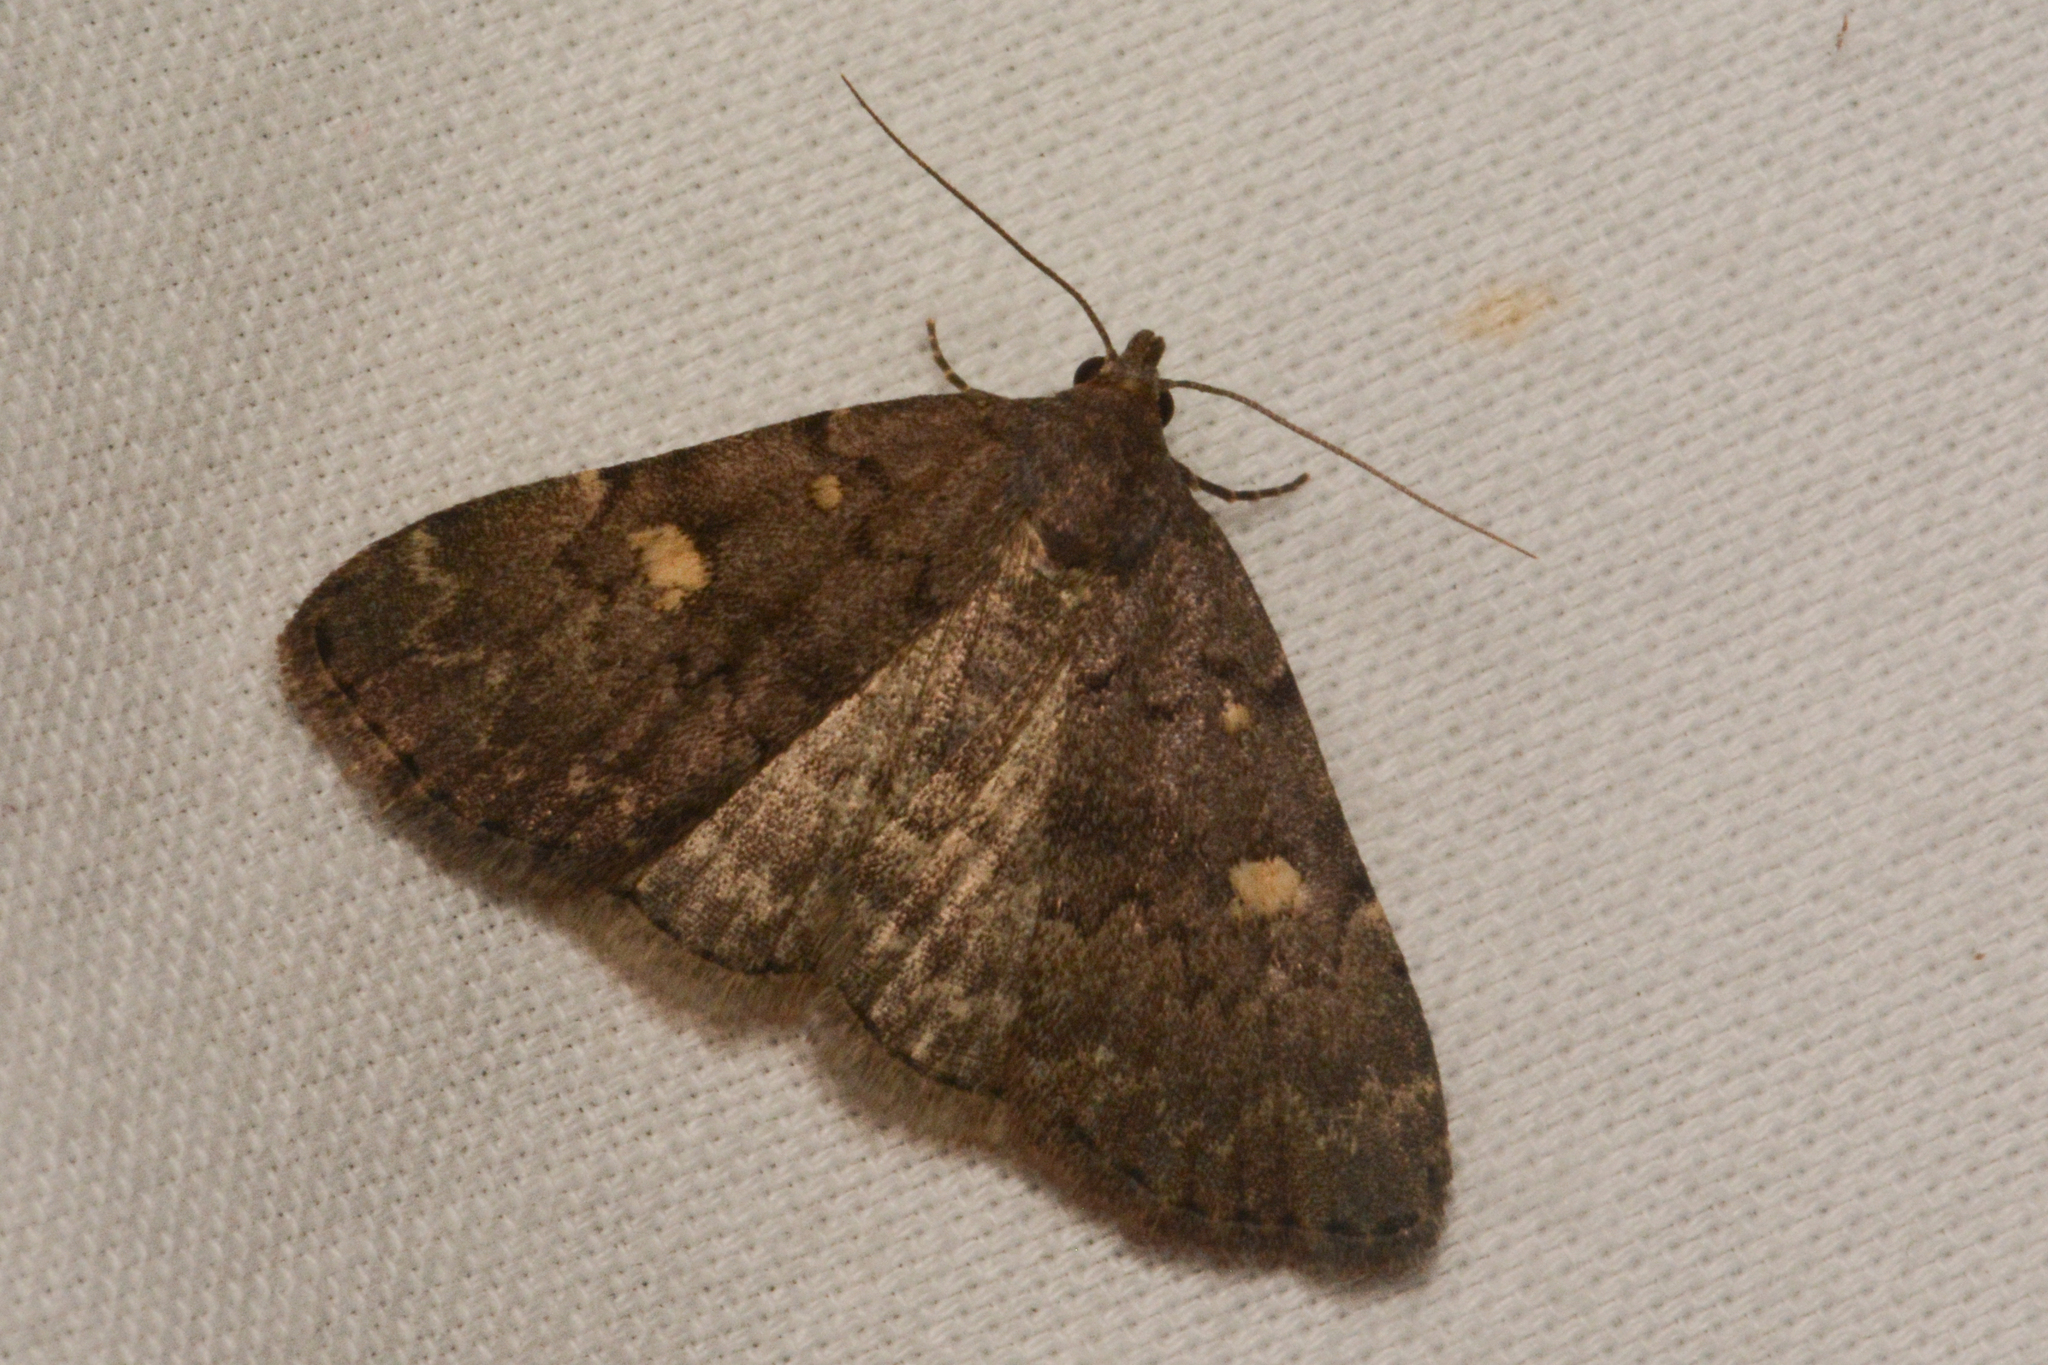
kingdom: Animalia
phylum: Arthropoda
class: Insecta
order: Lepidoptera
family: Erebidae
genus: Idia
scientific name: Idia aemula
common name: Common idia moth
